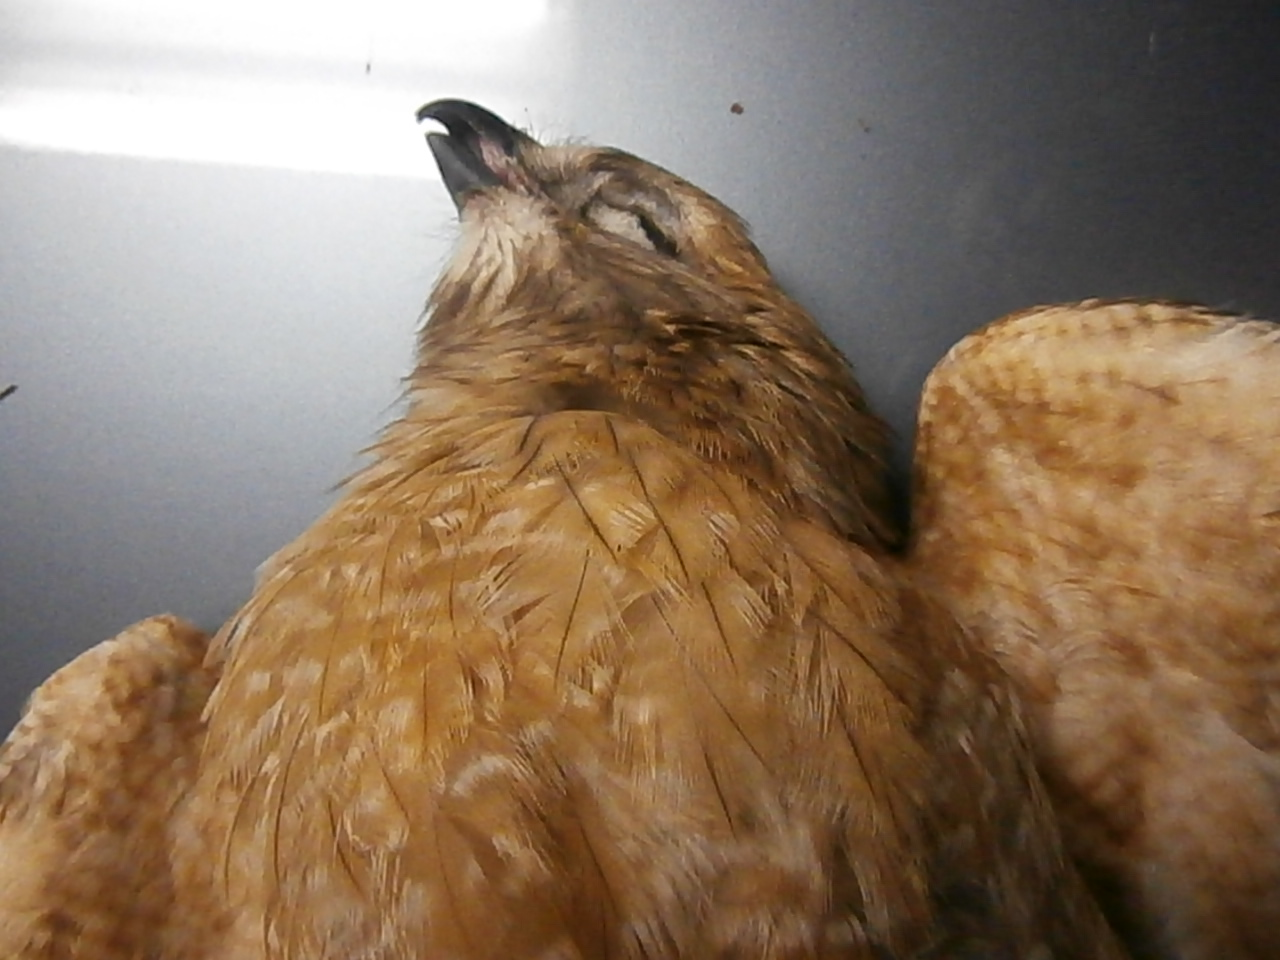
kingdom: Animalia
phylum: Chordata
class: Aves
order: Accipitriformes
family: Accipitridae
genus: Buteo
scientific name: Buteo lineatus
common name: Red-shouldered hawk
